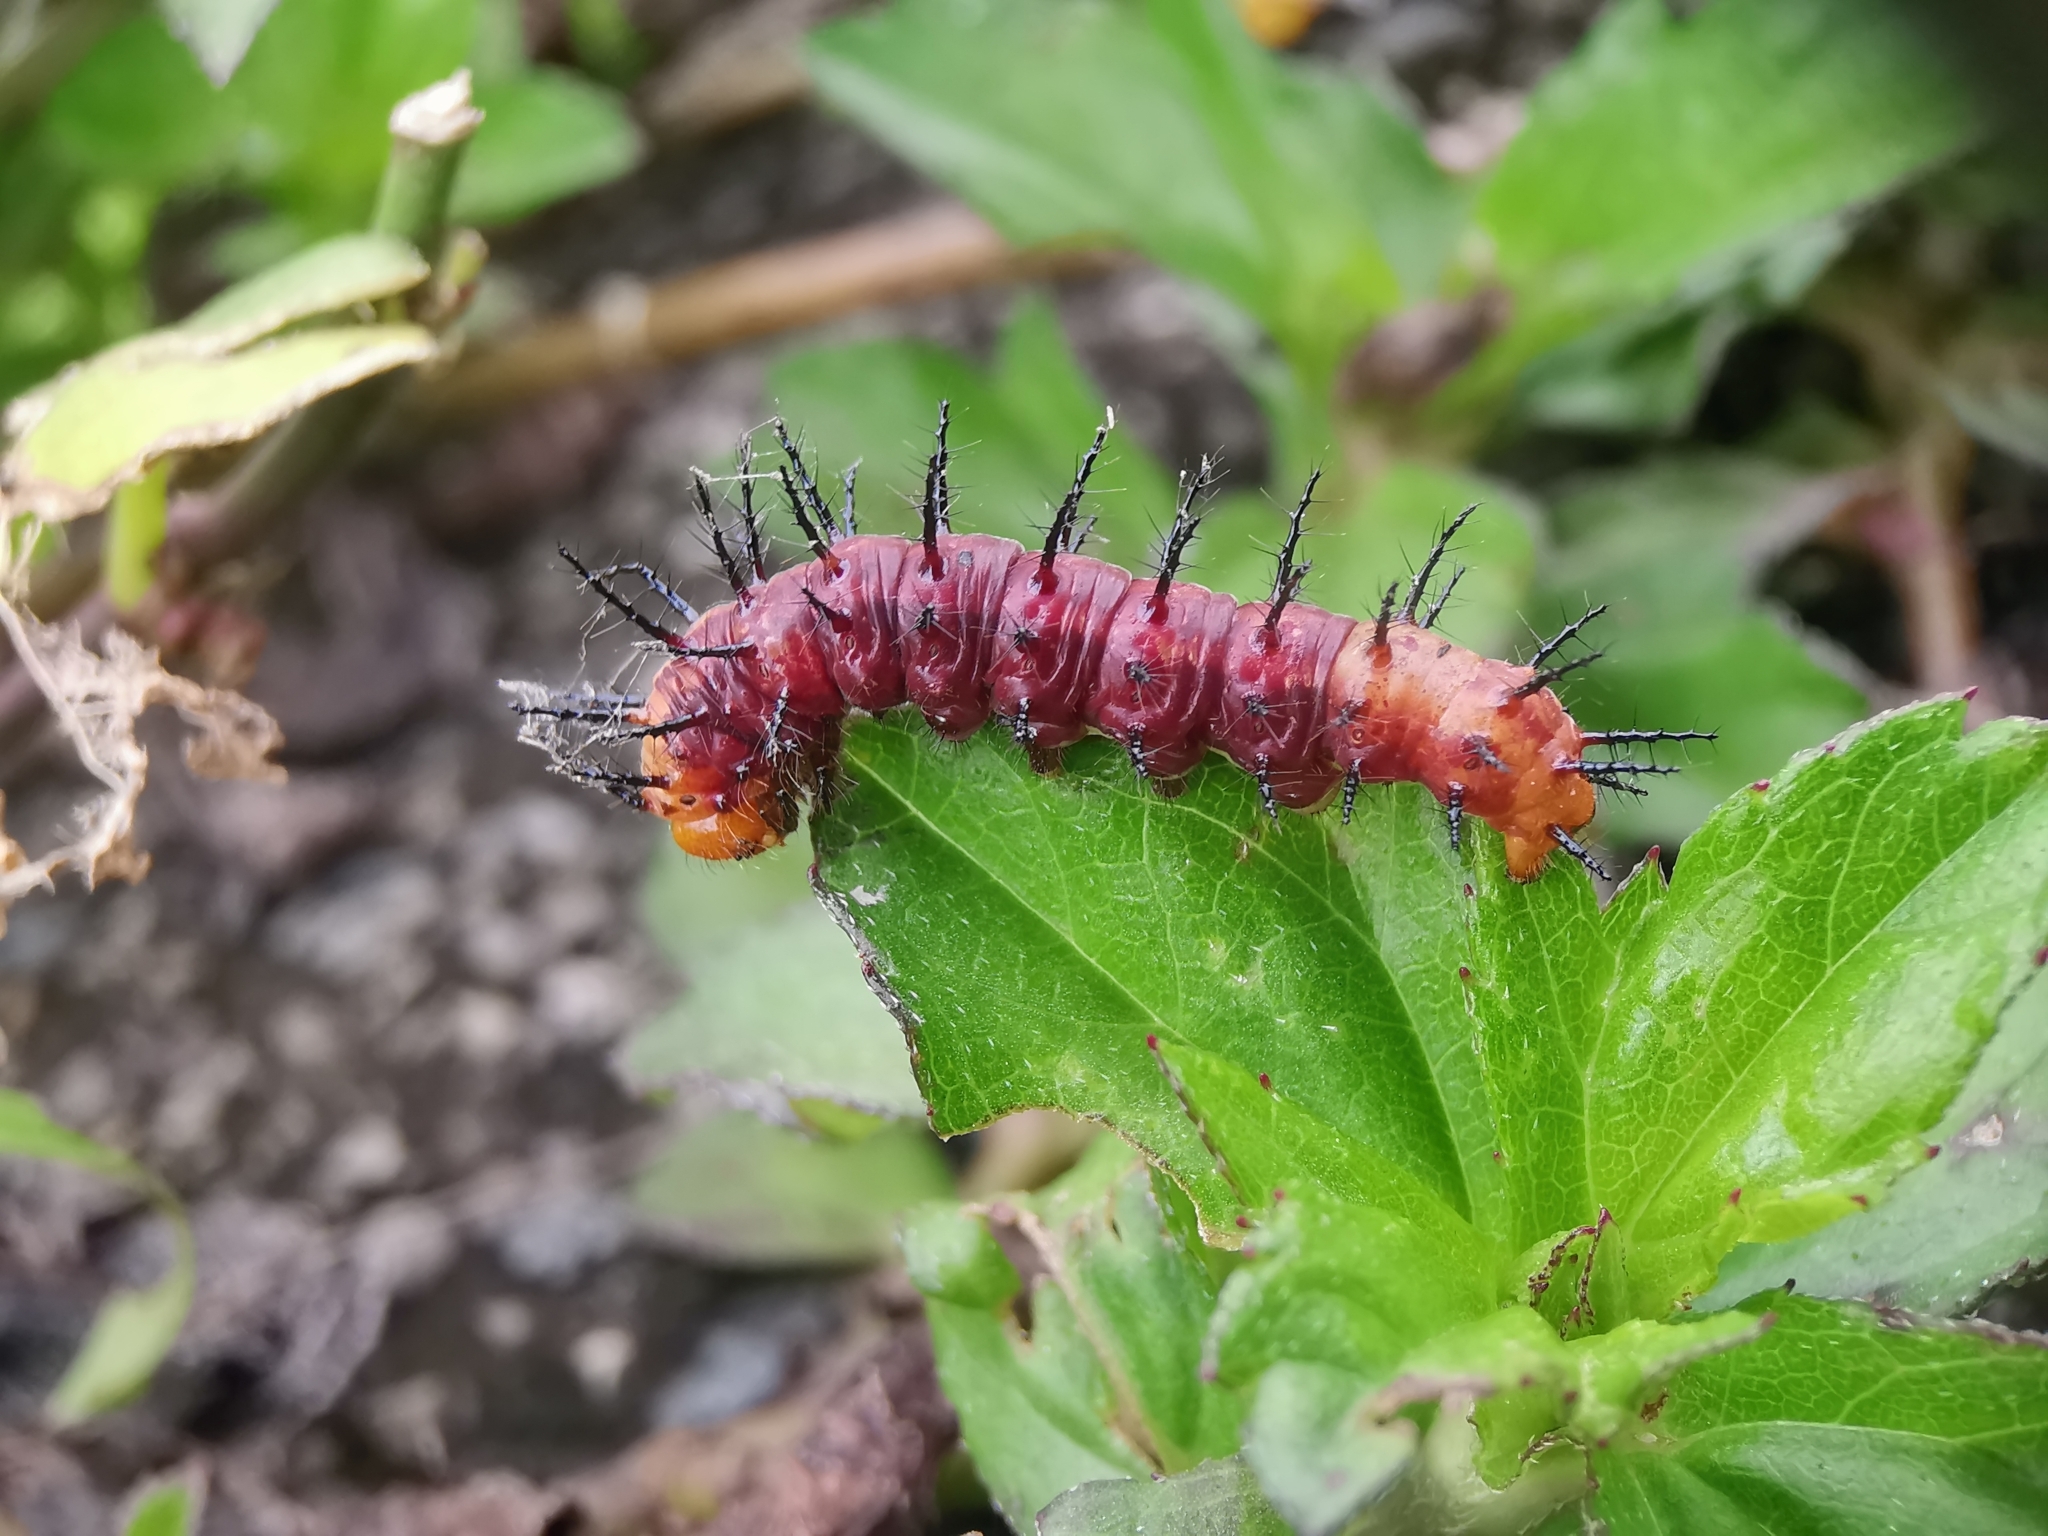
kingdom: Animalia
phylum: Arthropoda
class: Insecta
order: Lepidoptera
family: Nymphalidae
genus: Acraea
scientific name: Acraea terpsicore
